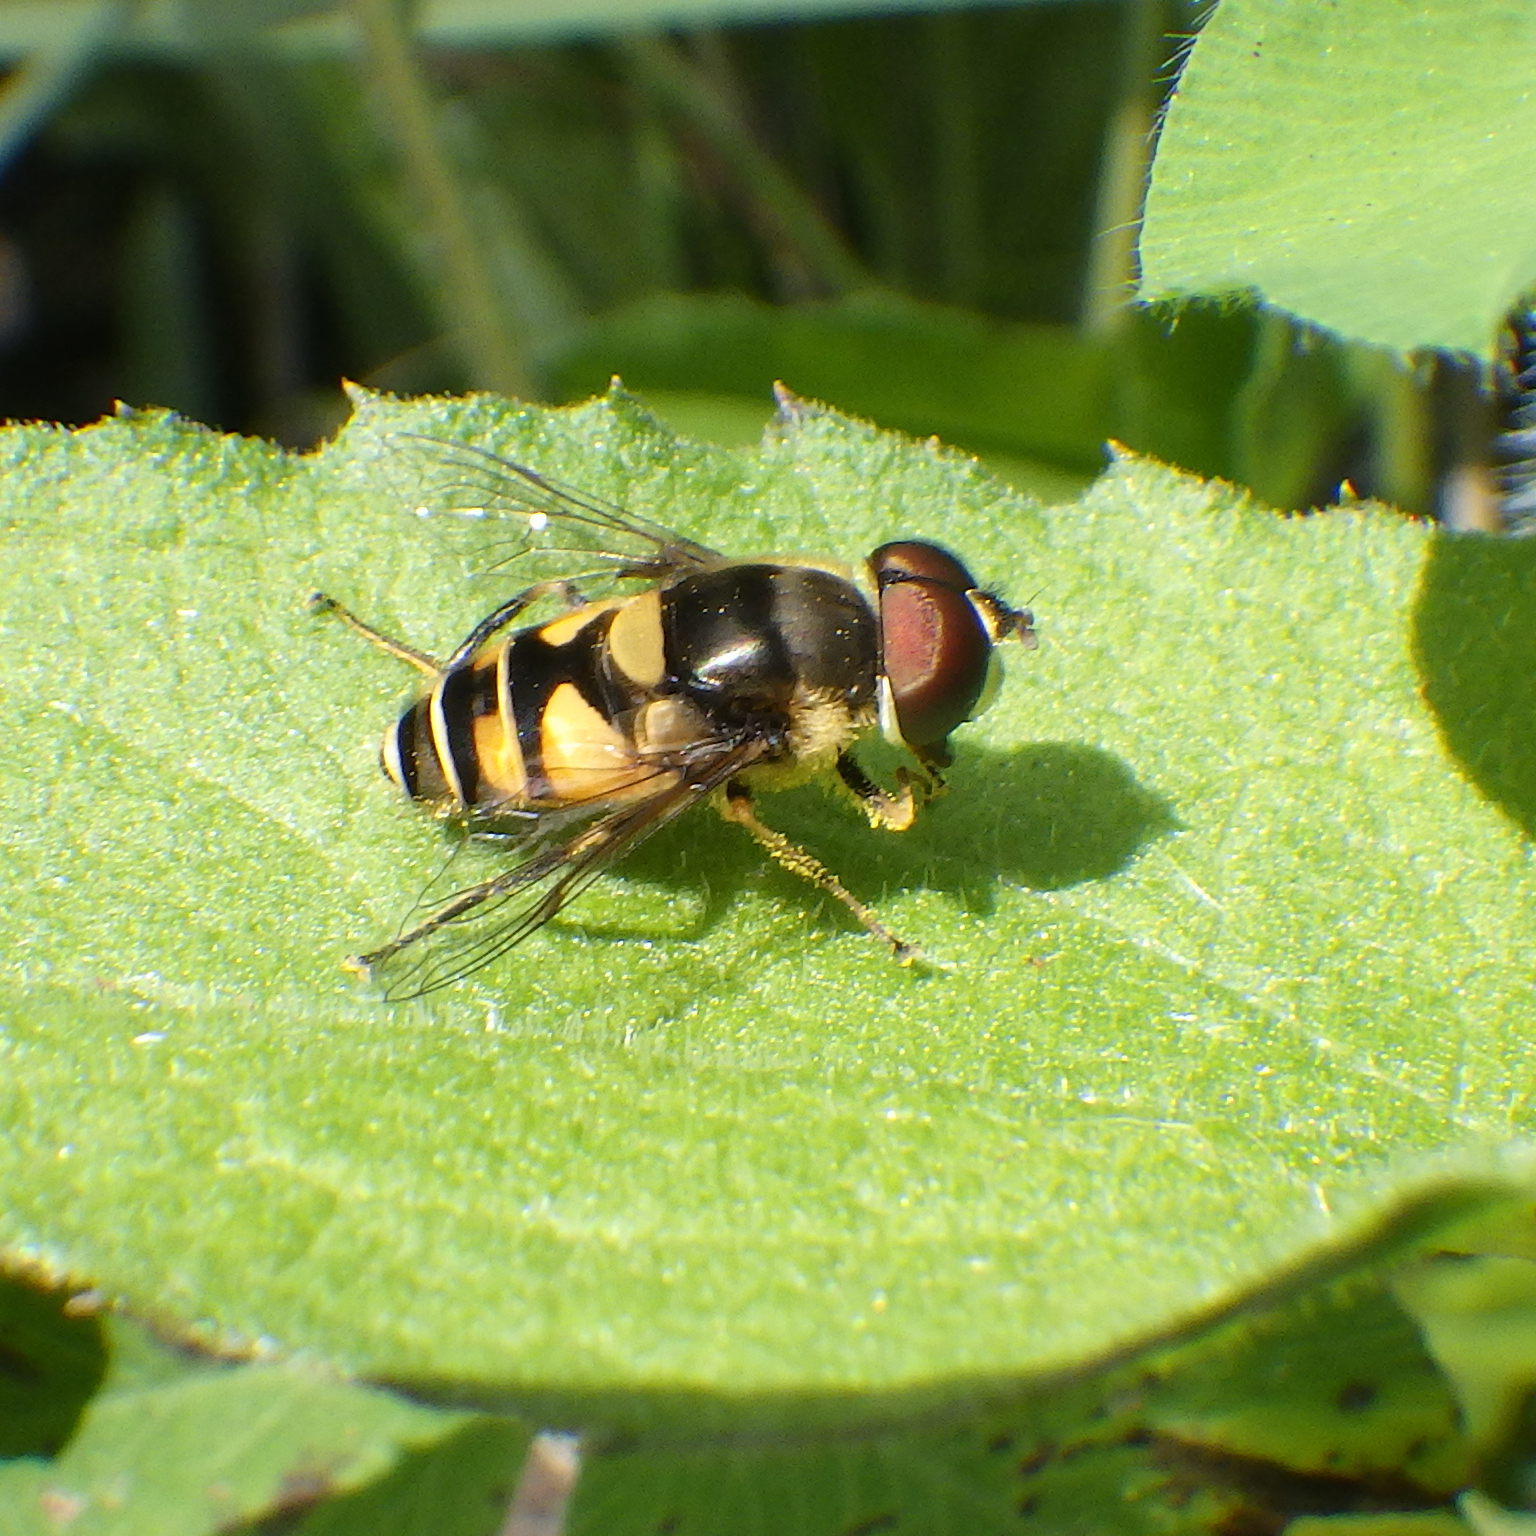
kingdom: Animalia
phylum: Arthropoda
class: Insecta
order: Diptera
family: Syrphidae
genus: Eristalis
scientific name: Eristalis transversa
